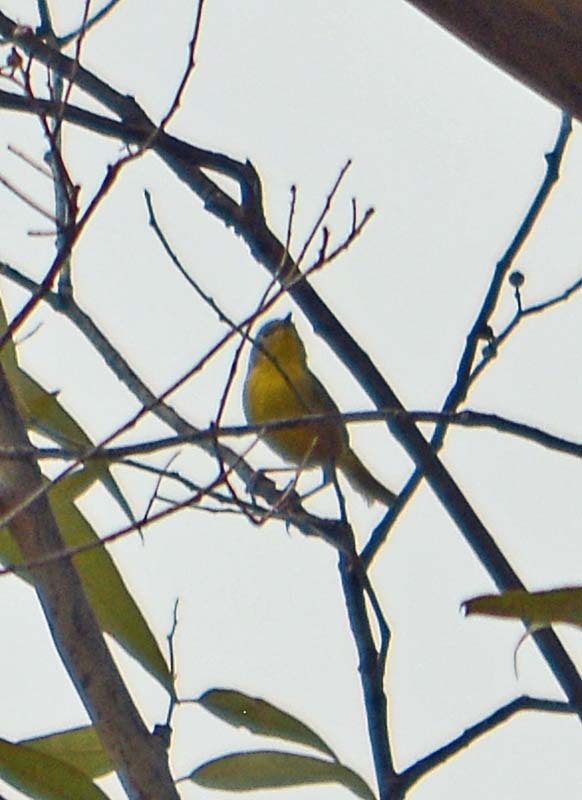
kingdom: Animalia
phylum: Chordata
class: Aves
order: Passeriformes
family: Parulidae
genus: Leiothlypis
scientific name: Leiothlypis ruficapilla
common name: Nashville warbler
